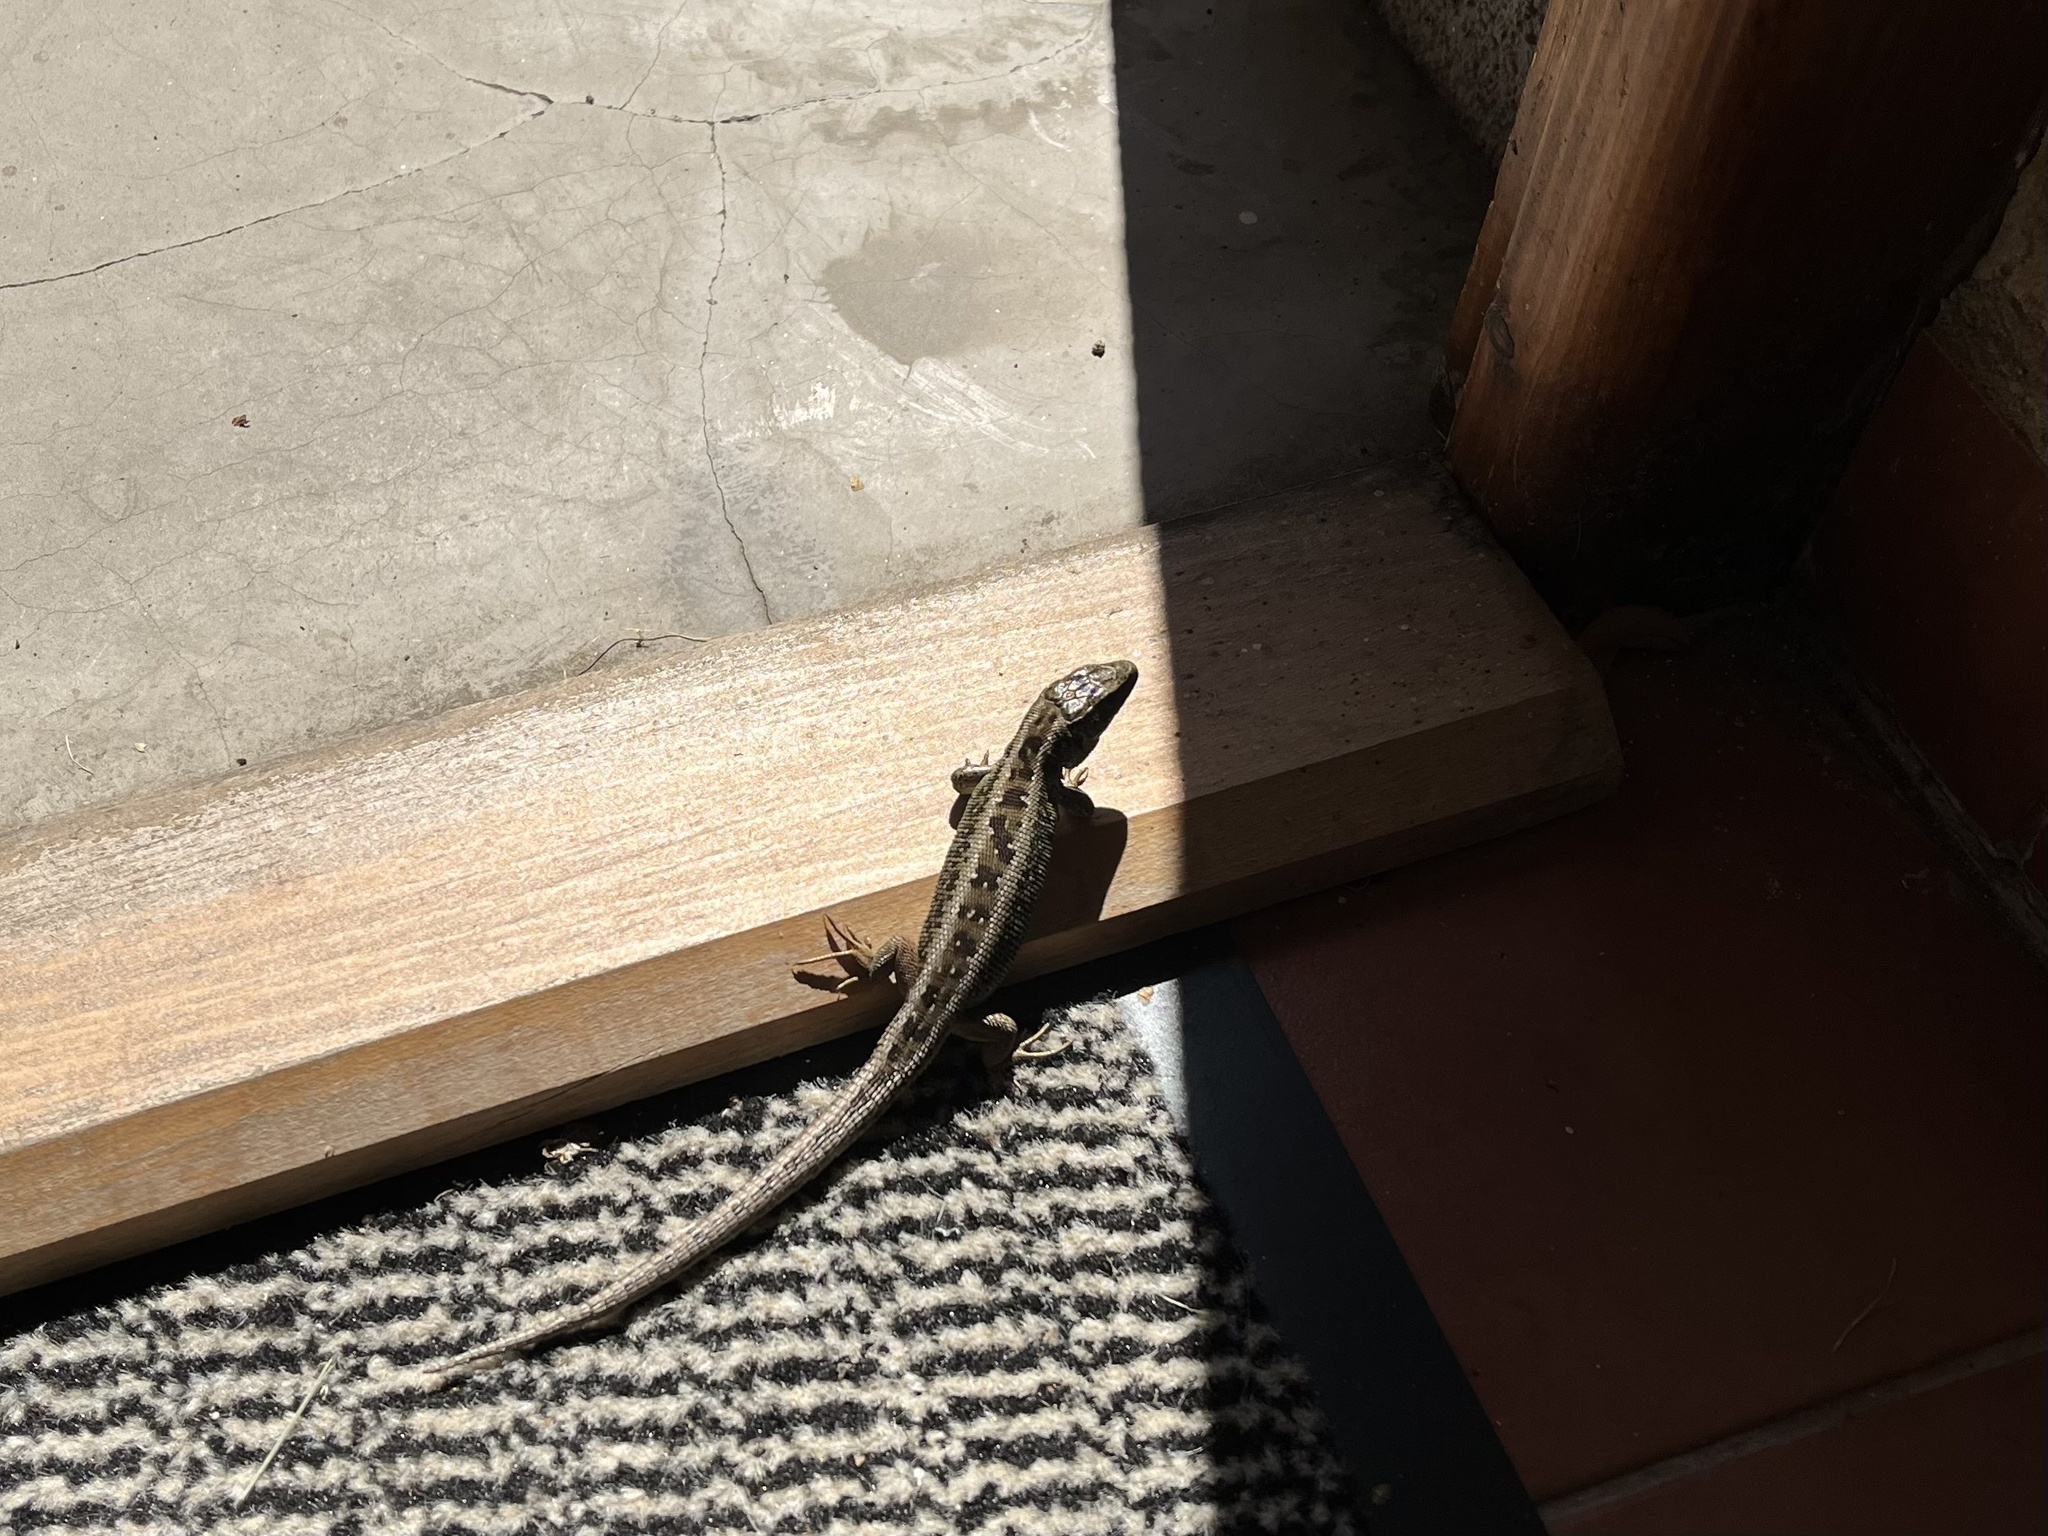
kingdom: Animalia
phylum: Chordata
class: Squamata
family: Lacertidae
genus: Lacerta
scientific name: Lacerta agilis
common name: Sand lizard
